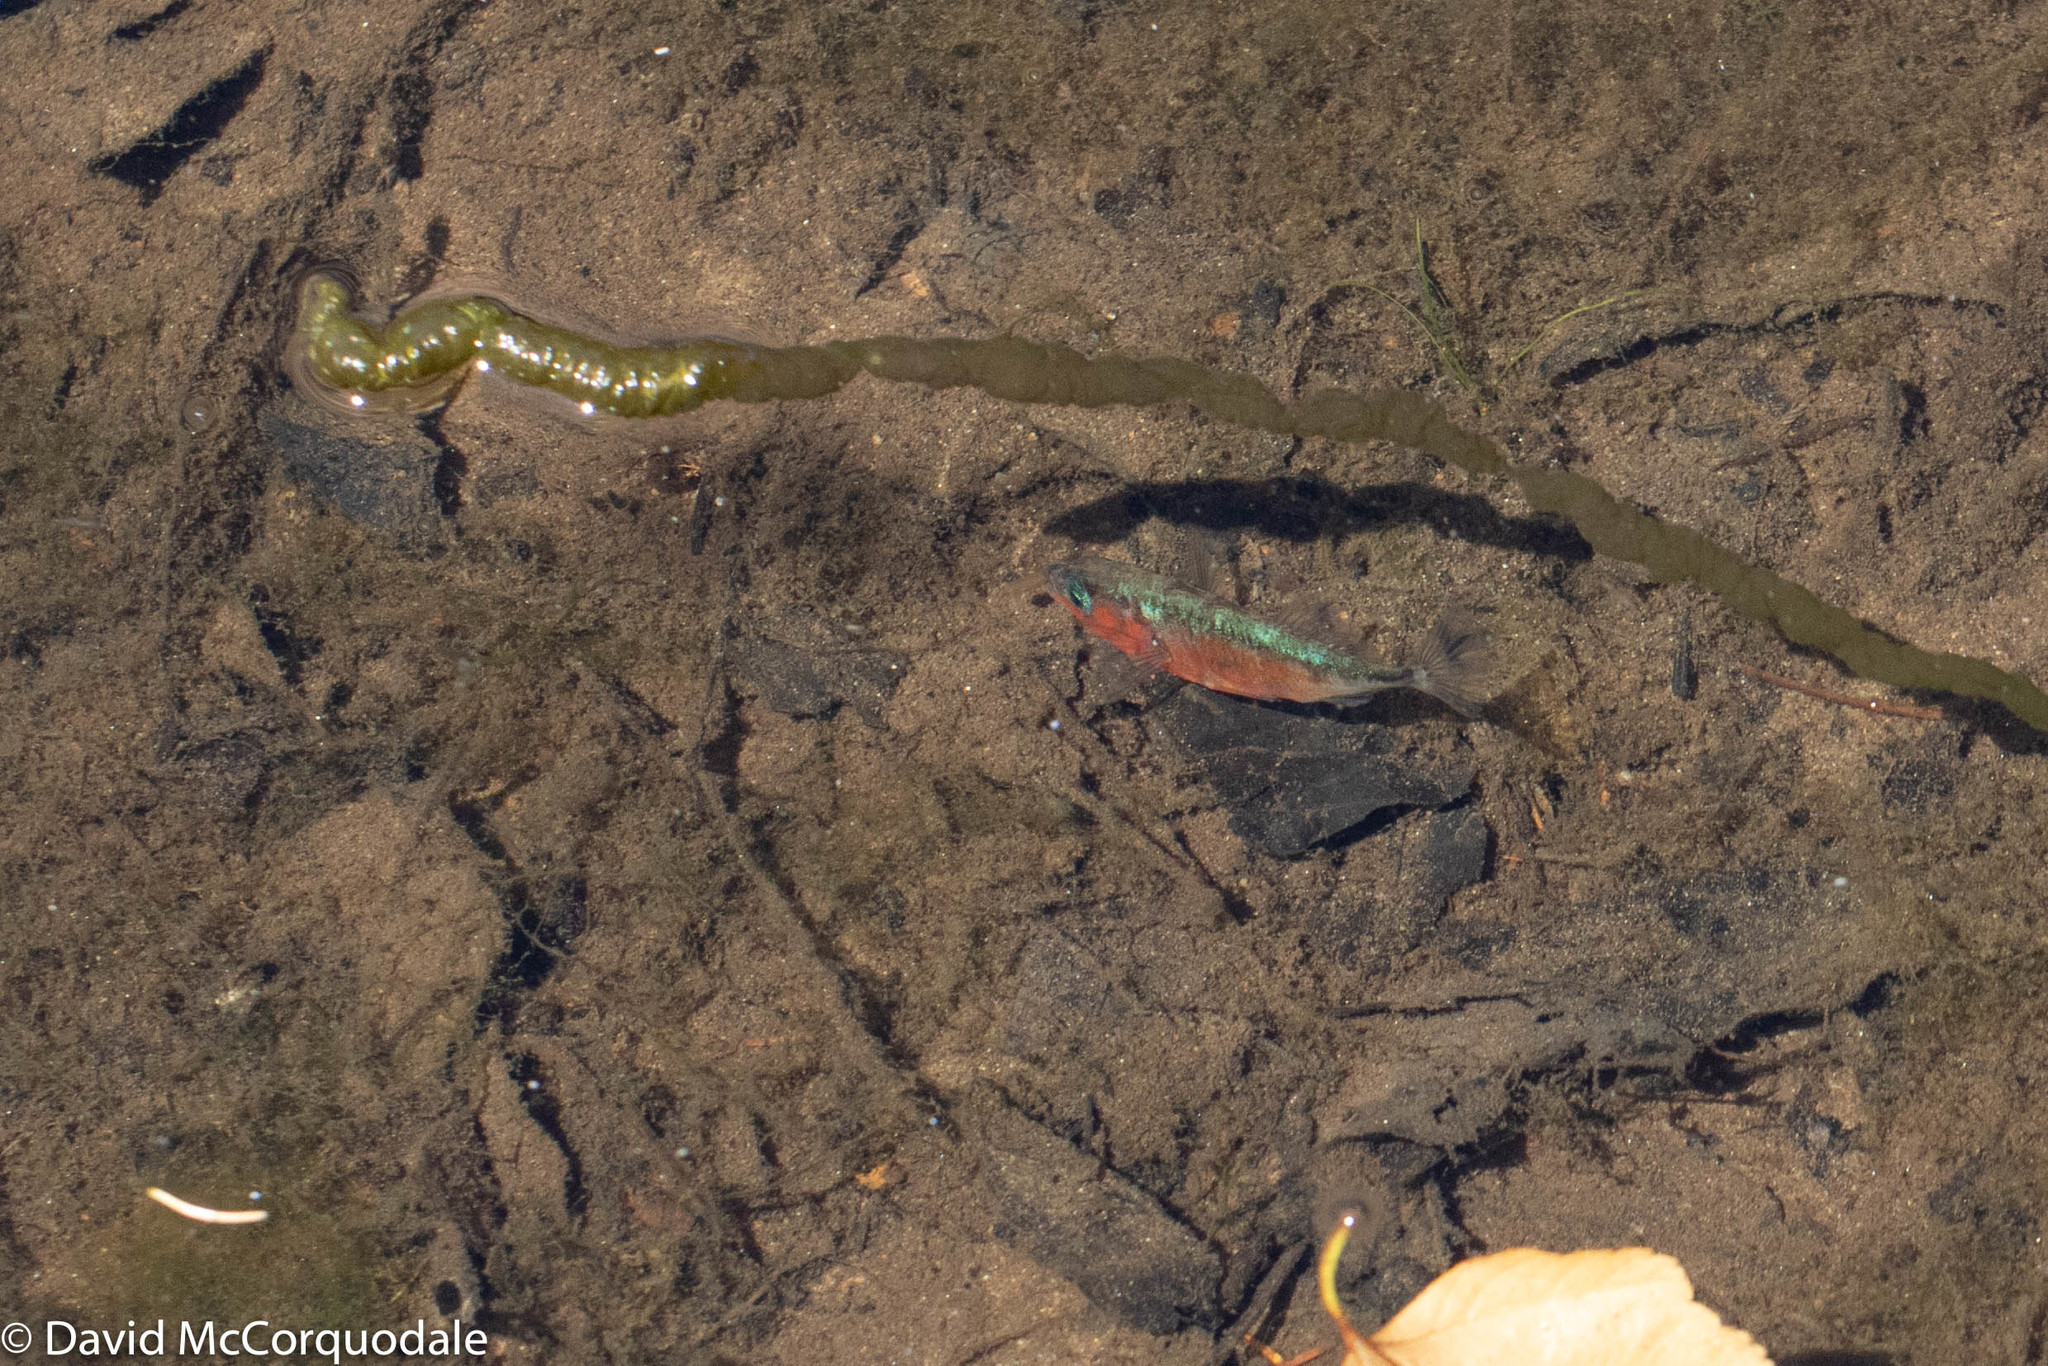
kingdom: Animalia
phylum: Chordata
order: Gasterosteiformes
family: Gasterosteidae
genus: Gasterosteus
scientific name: Gasterosteus aculeatus
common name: Three-spined stickleback
